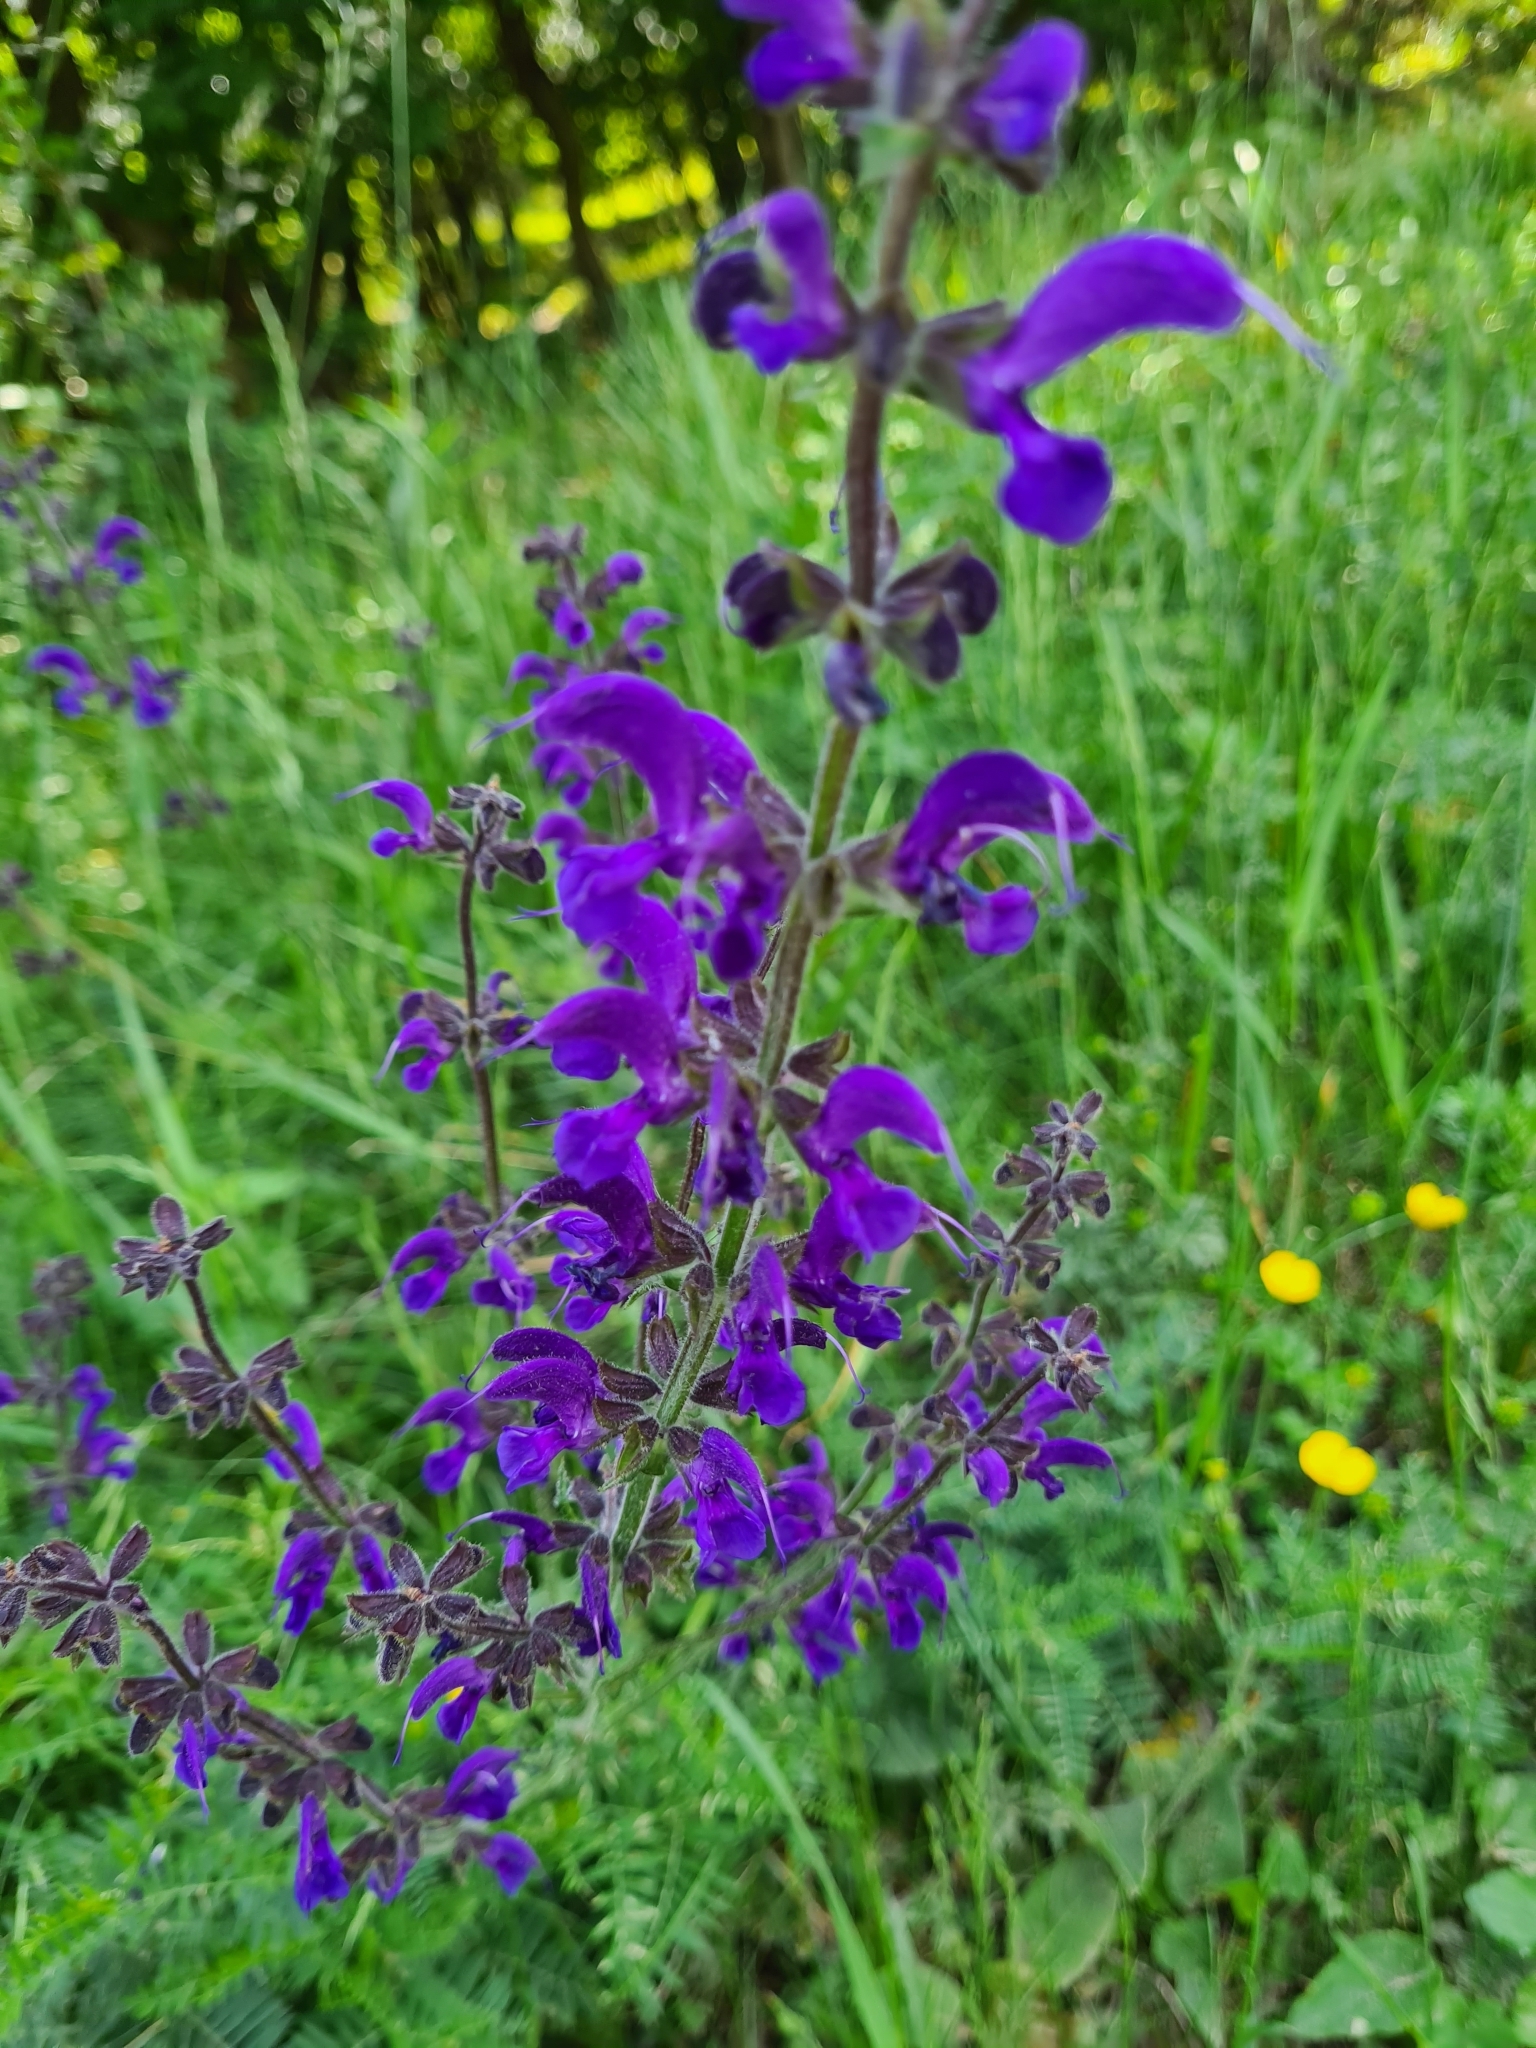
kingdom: Plantae
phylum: Tracheophyta
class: Magnoliopsida
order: Lamiales
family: Lamiaceae
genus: Salvia
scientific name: Salvia pratensis
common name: Meadow sage
